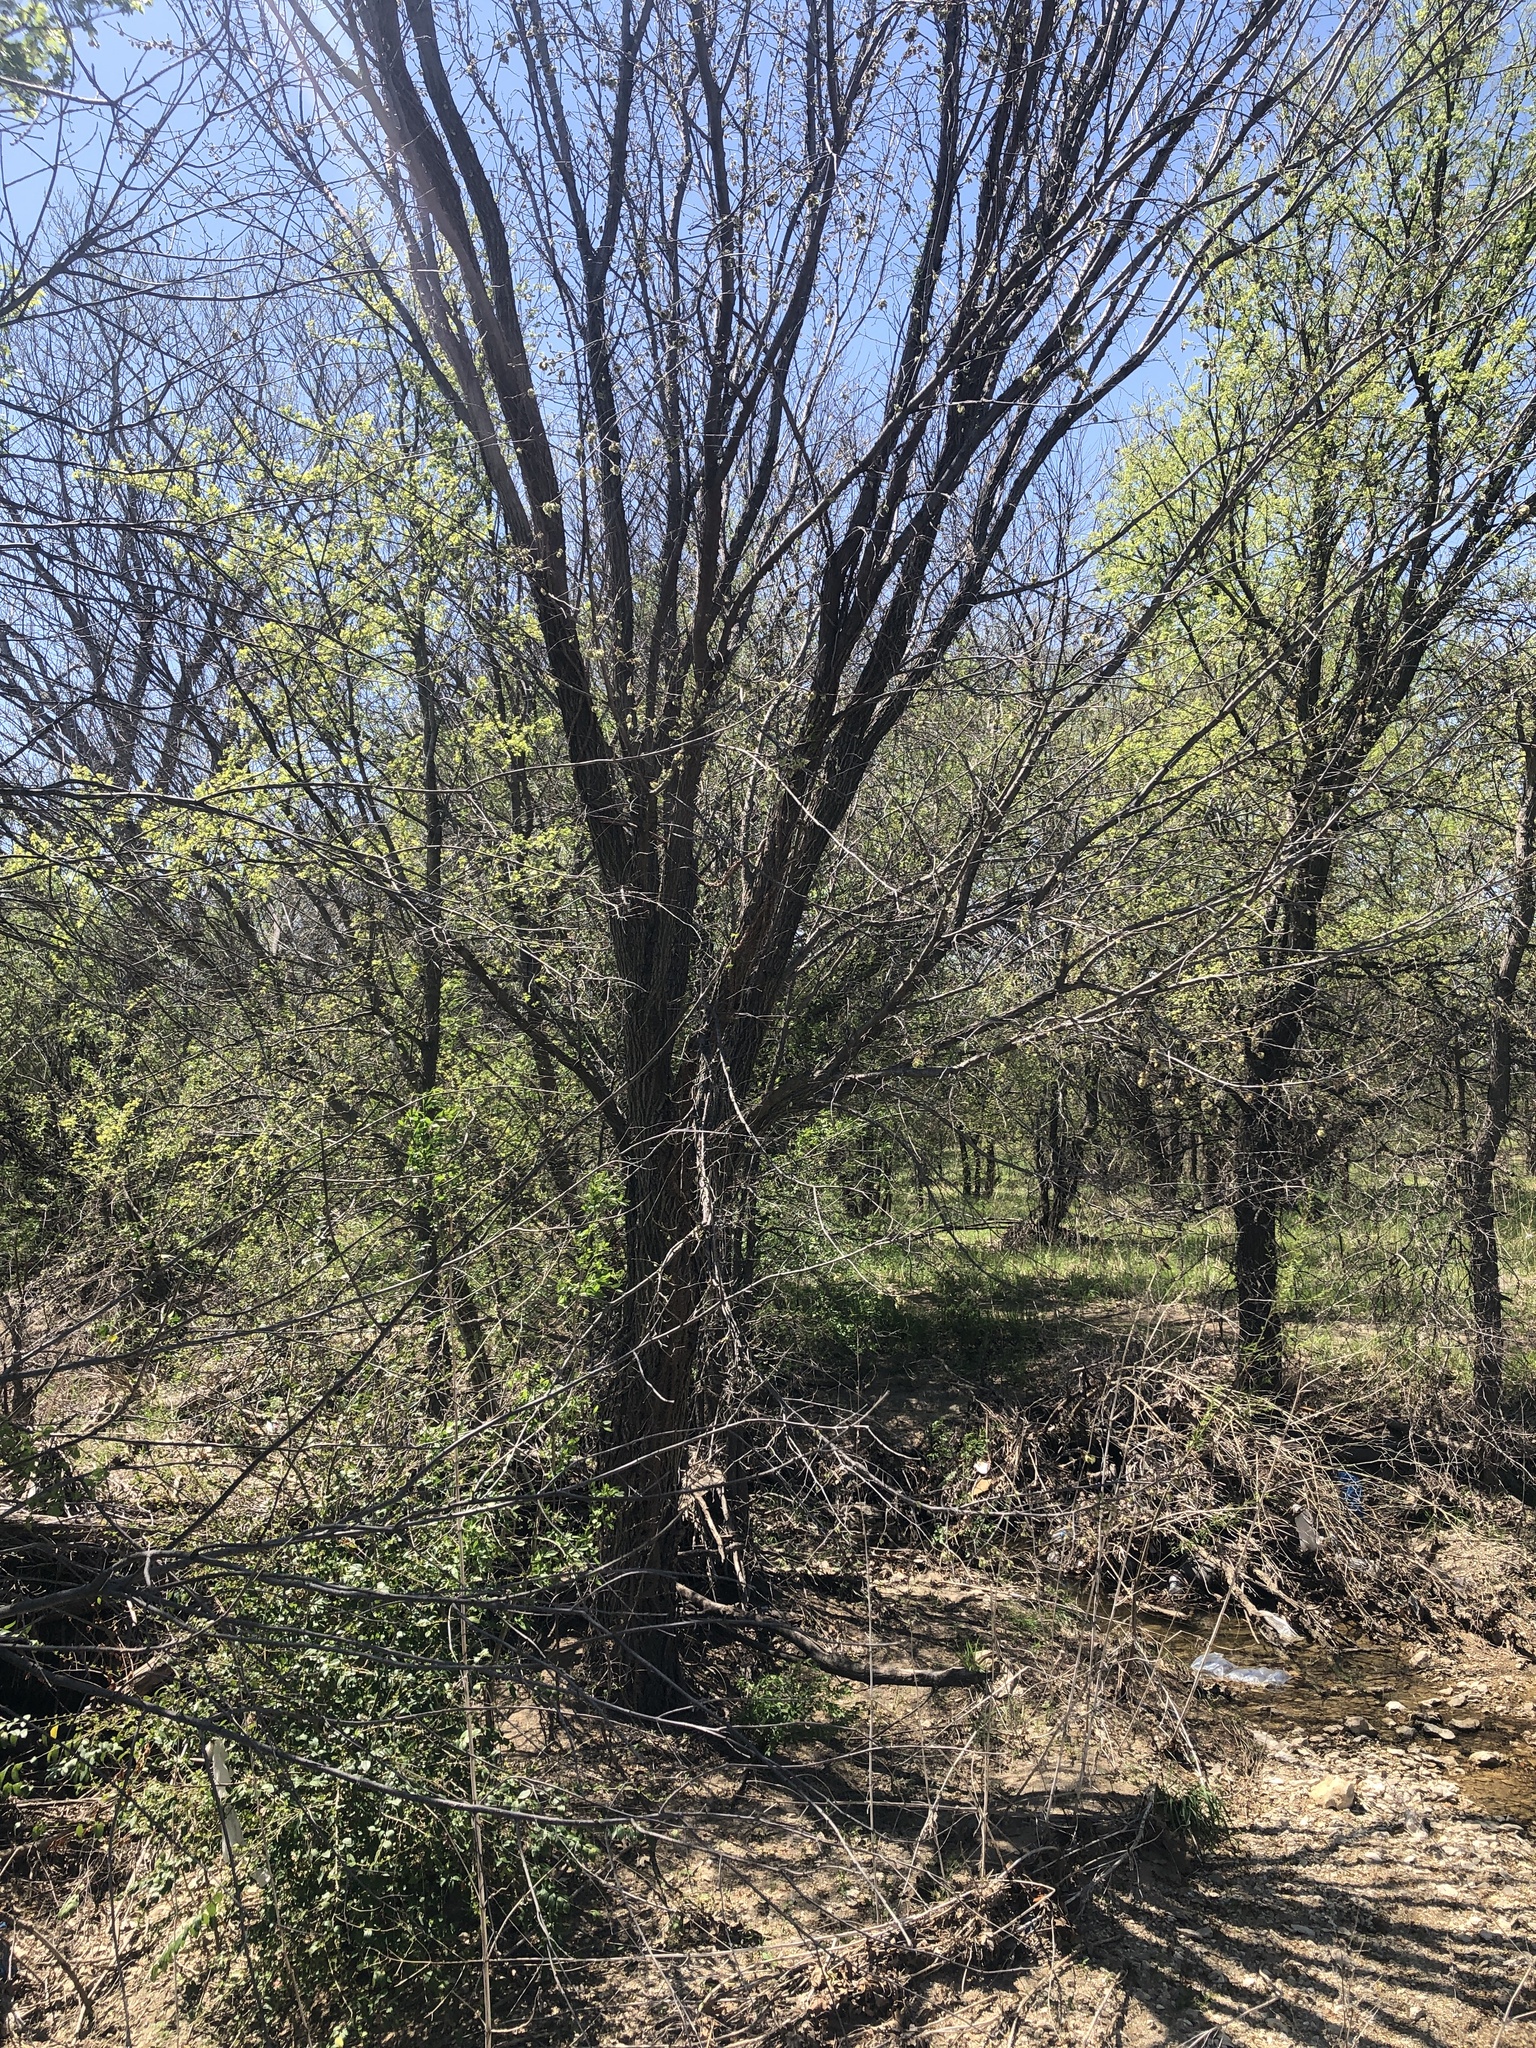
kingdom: Plantae
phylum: Tracheophyta
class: Magnoliopsida
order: Rosales
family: Ulmaceae
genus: Ulmus
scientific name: Ulmus americana
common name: American elm
